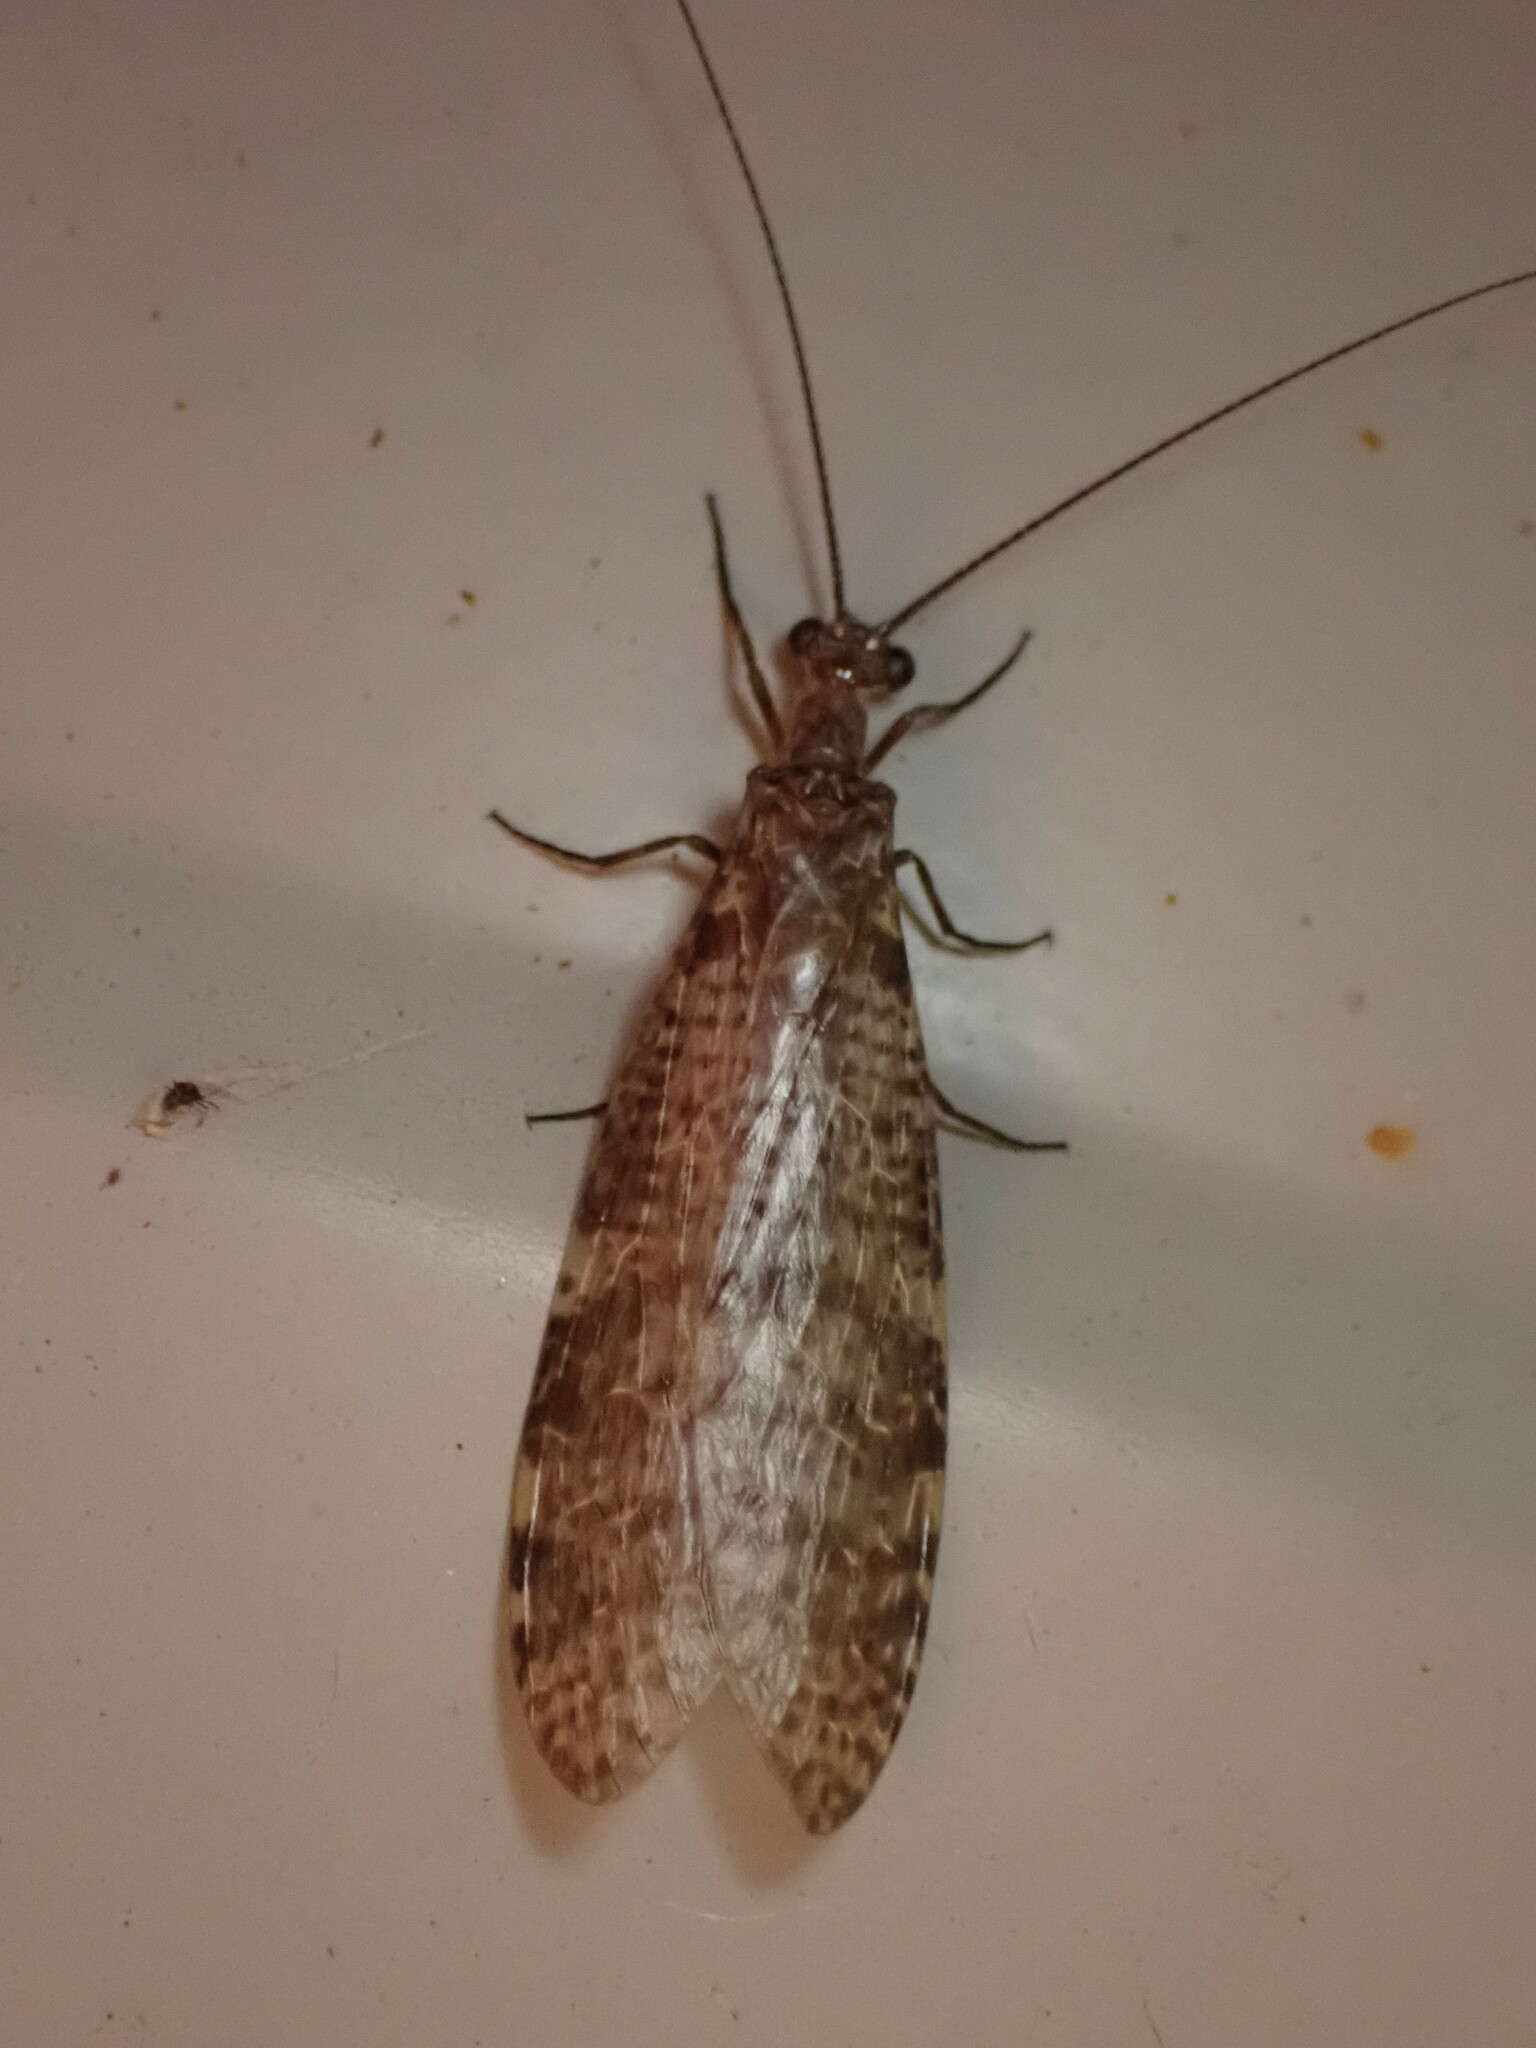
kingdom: Animalia
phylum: Arthropoda
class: Insecta
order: Megaloptera
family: Corydalidae
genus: Archichauliodes
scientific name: Archichauliodes diversus
